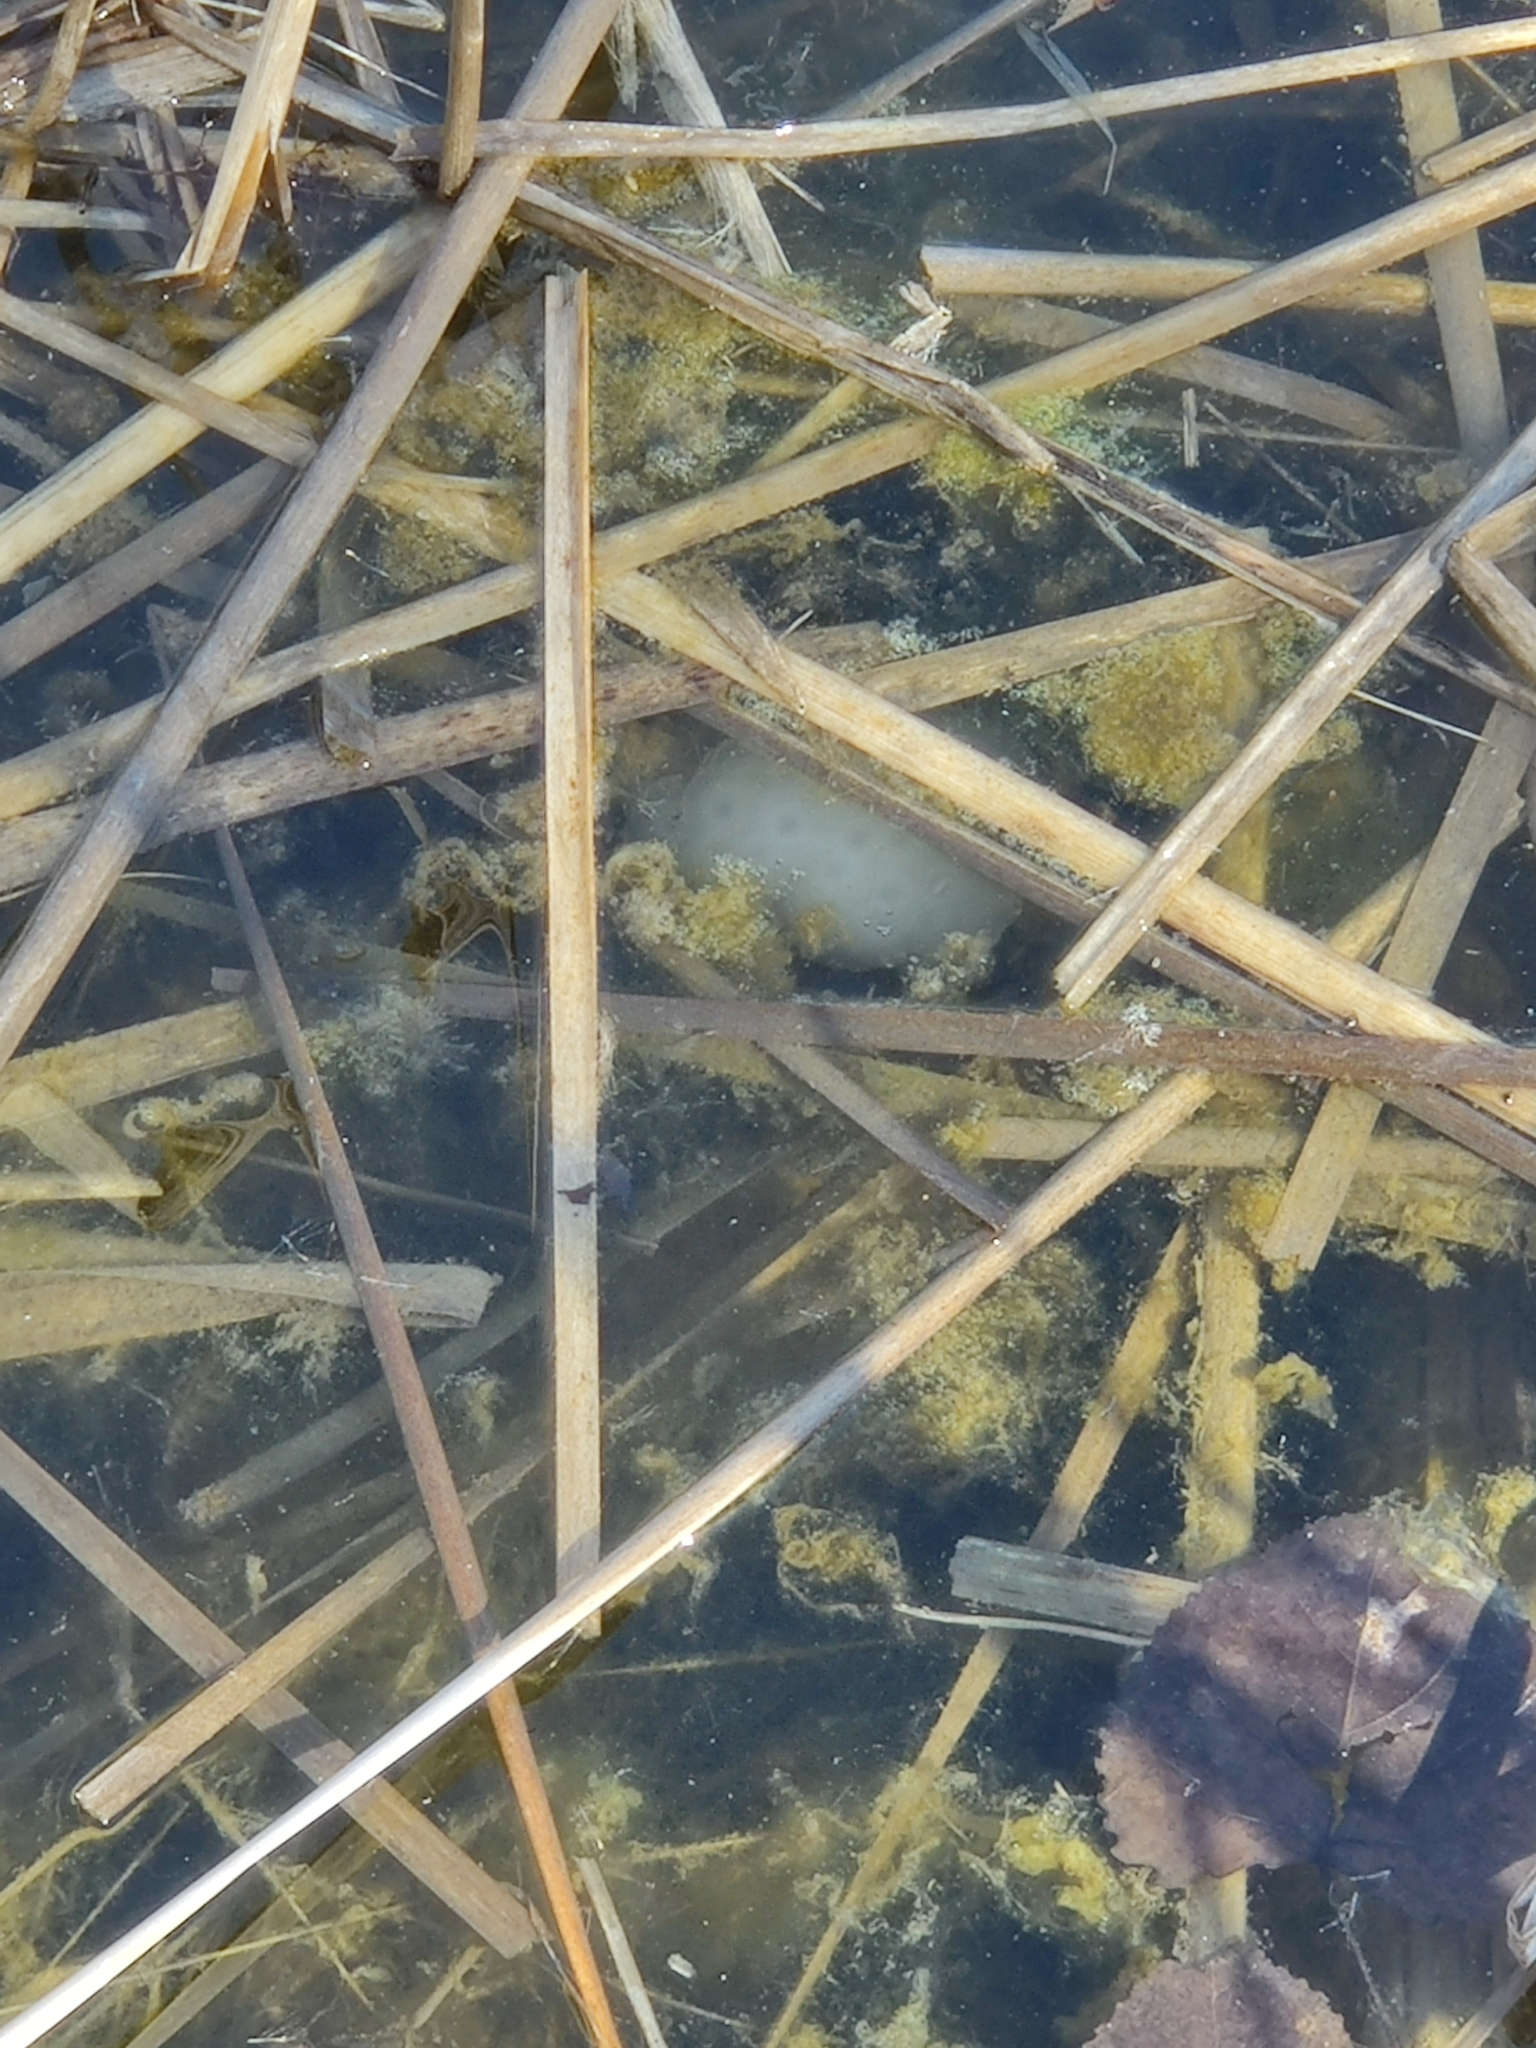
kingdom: Animalia
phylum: Chordata
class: Amphibia
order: Caudata
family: Ambystomatidae
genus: Ambystoma
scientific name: Ambystoma maculatum
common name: Spotted salamander
